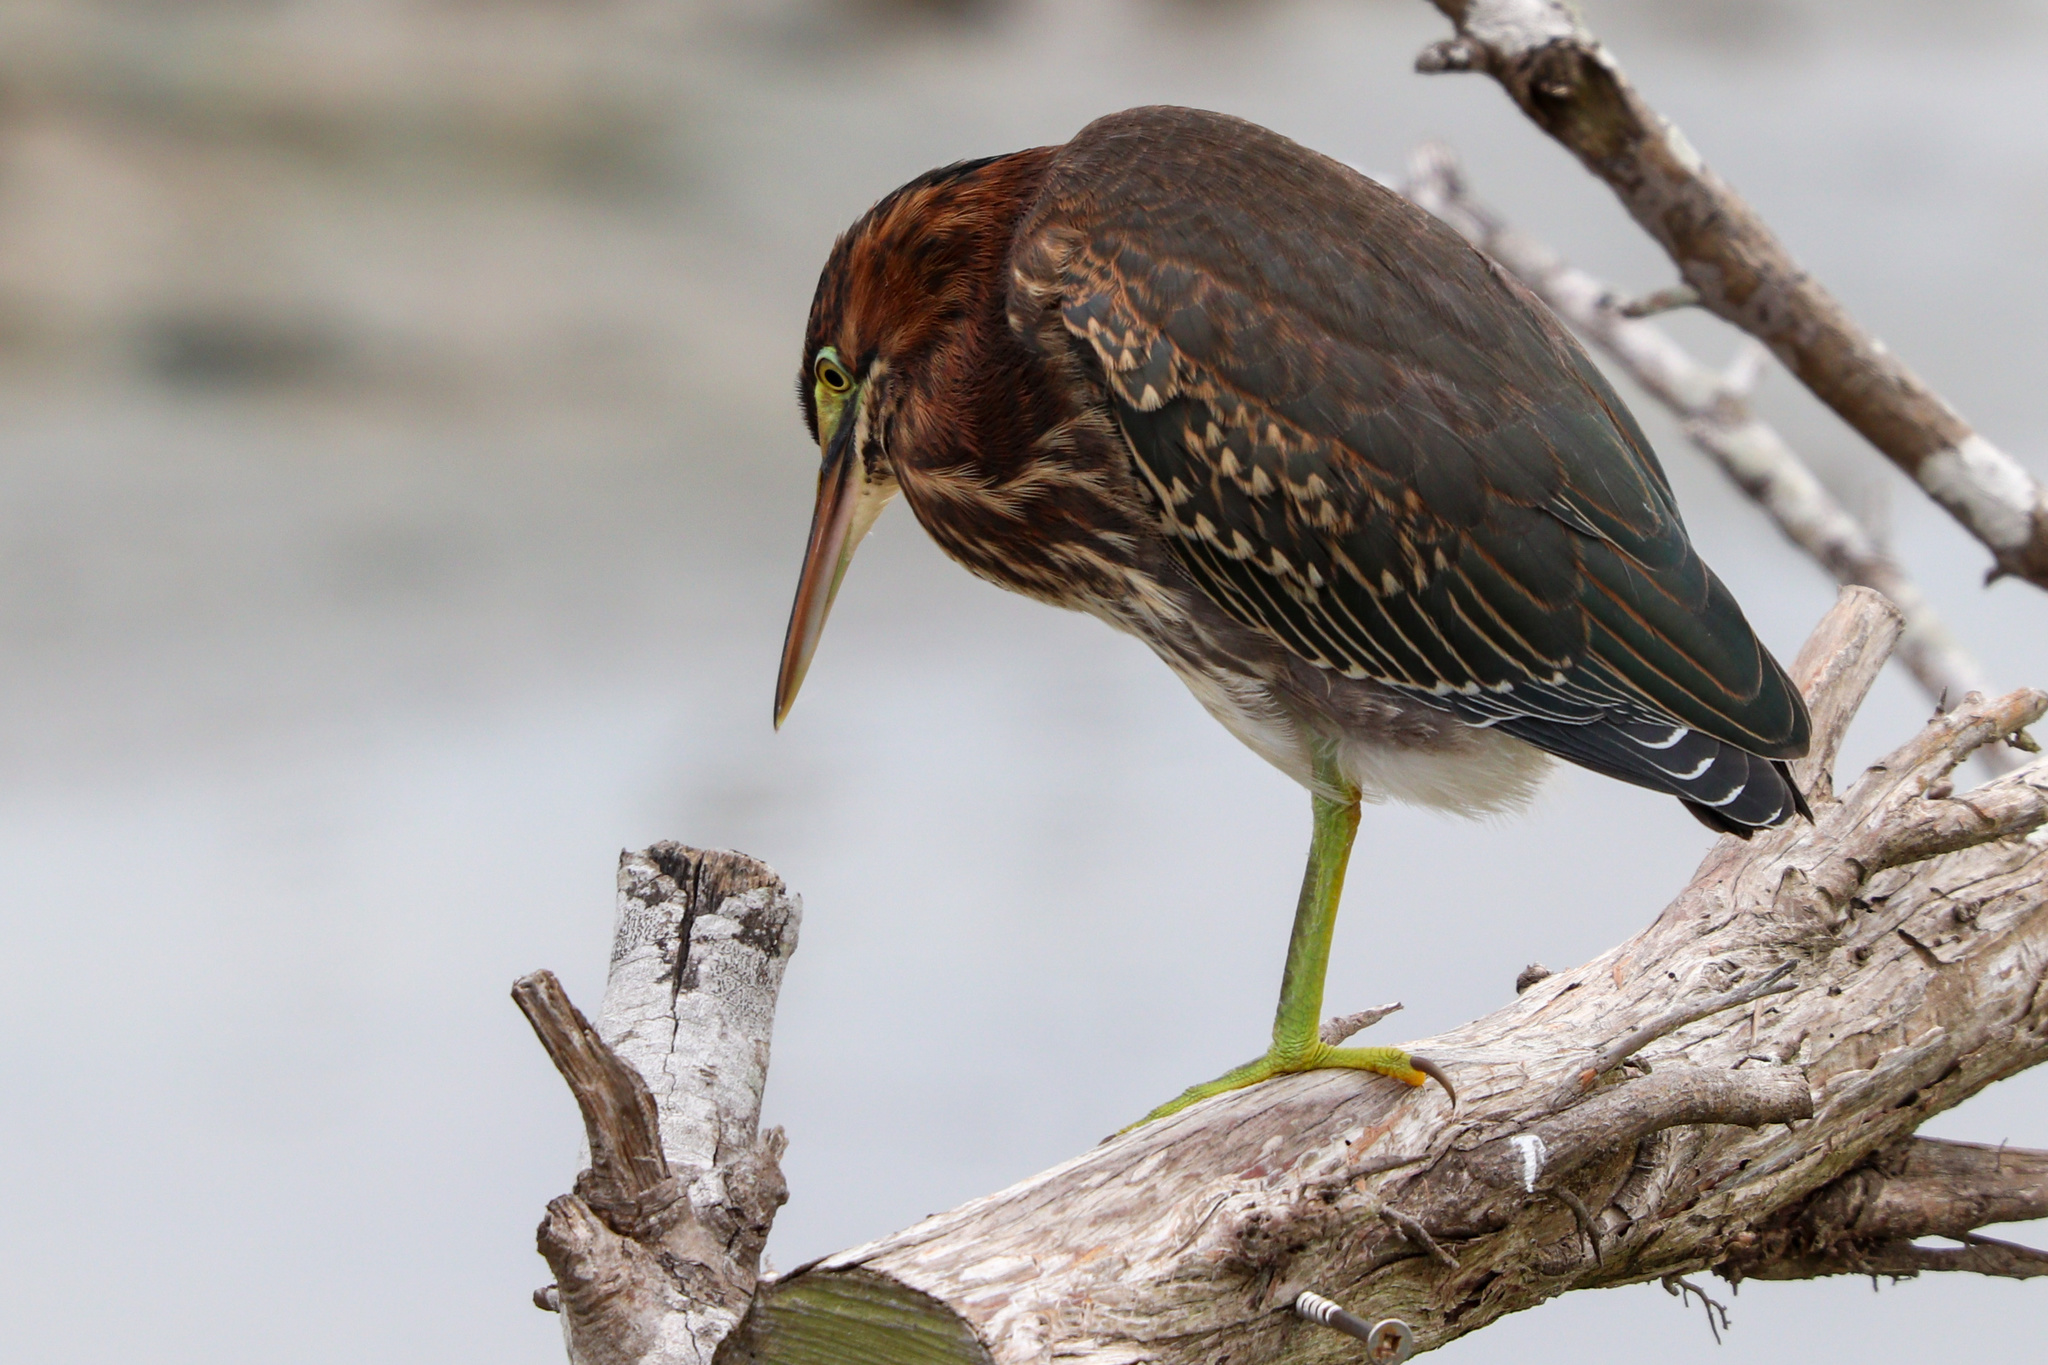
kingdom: Animalia
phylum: Chordata
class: Aves
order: Pelecaniformes
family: Ardeidae
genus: Butorides
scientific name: Butorides virescens
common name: Green heron
